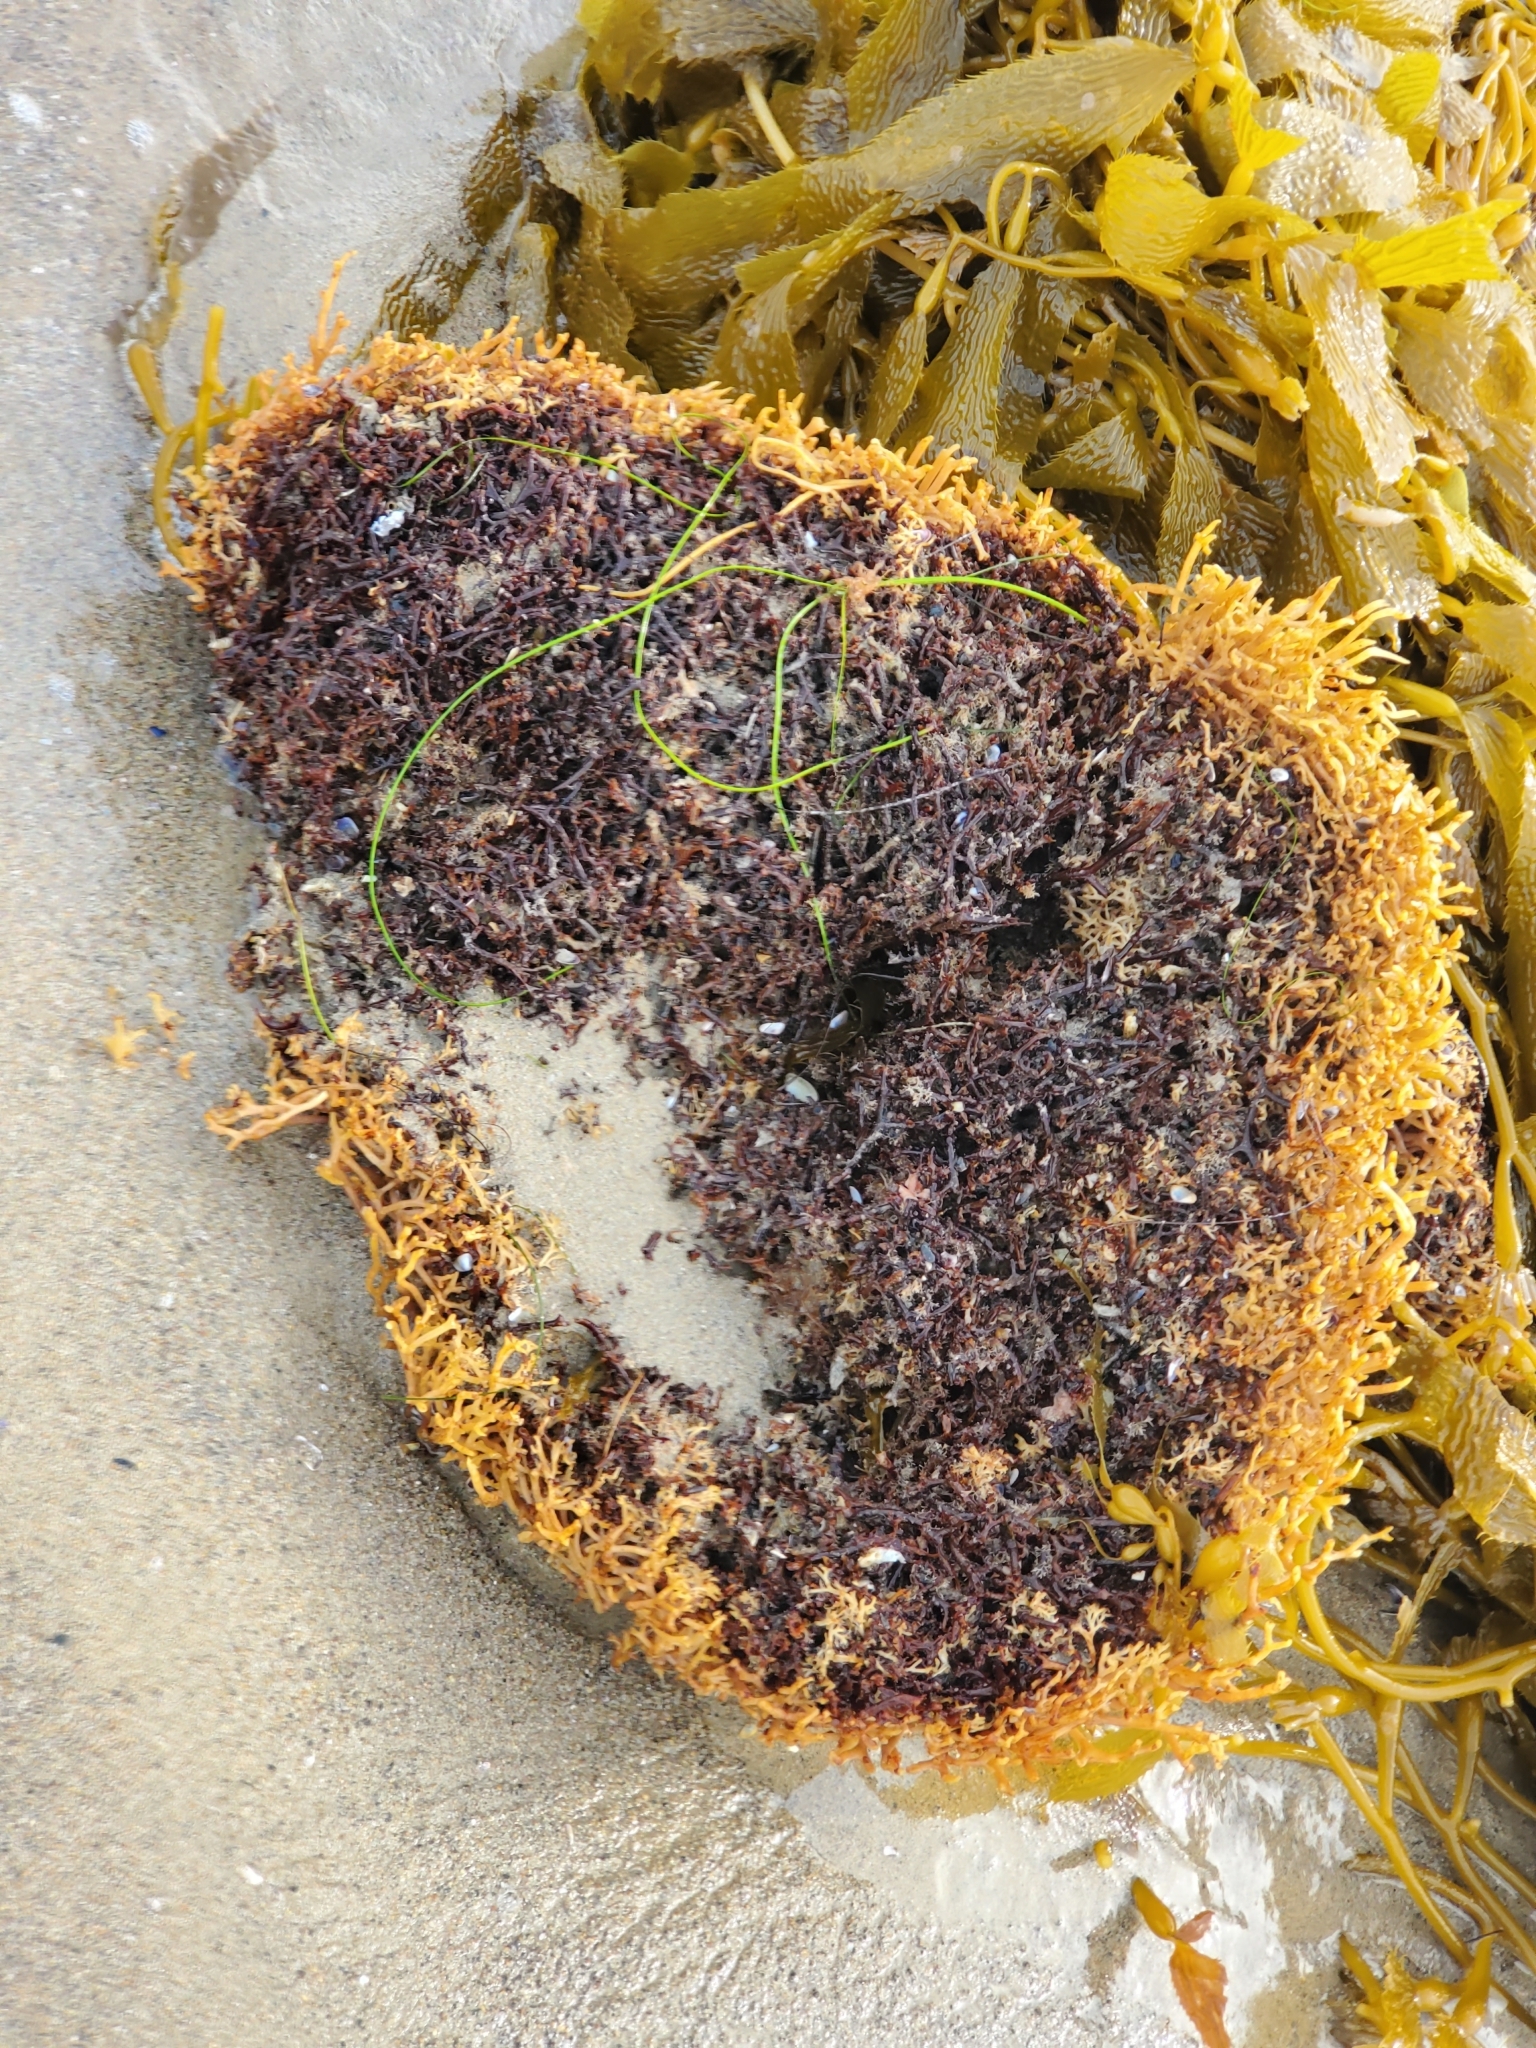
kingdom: Chromista
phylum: Ochrophyta
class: Phaeophyceae
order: Laminariales
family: Laminariaceae
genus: Macrocystis
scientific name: Macrocystis pyrifera
